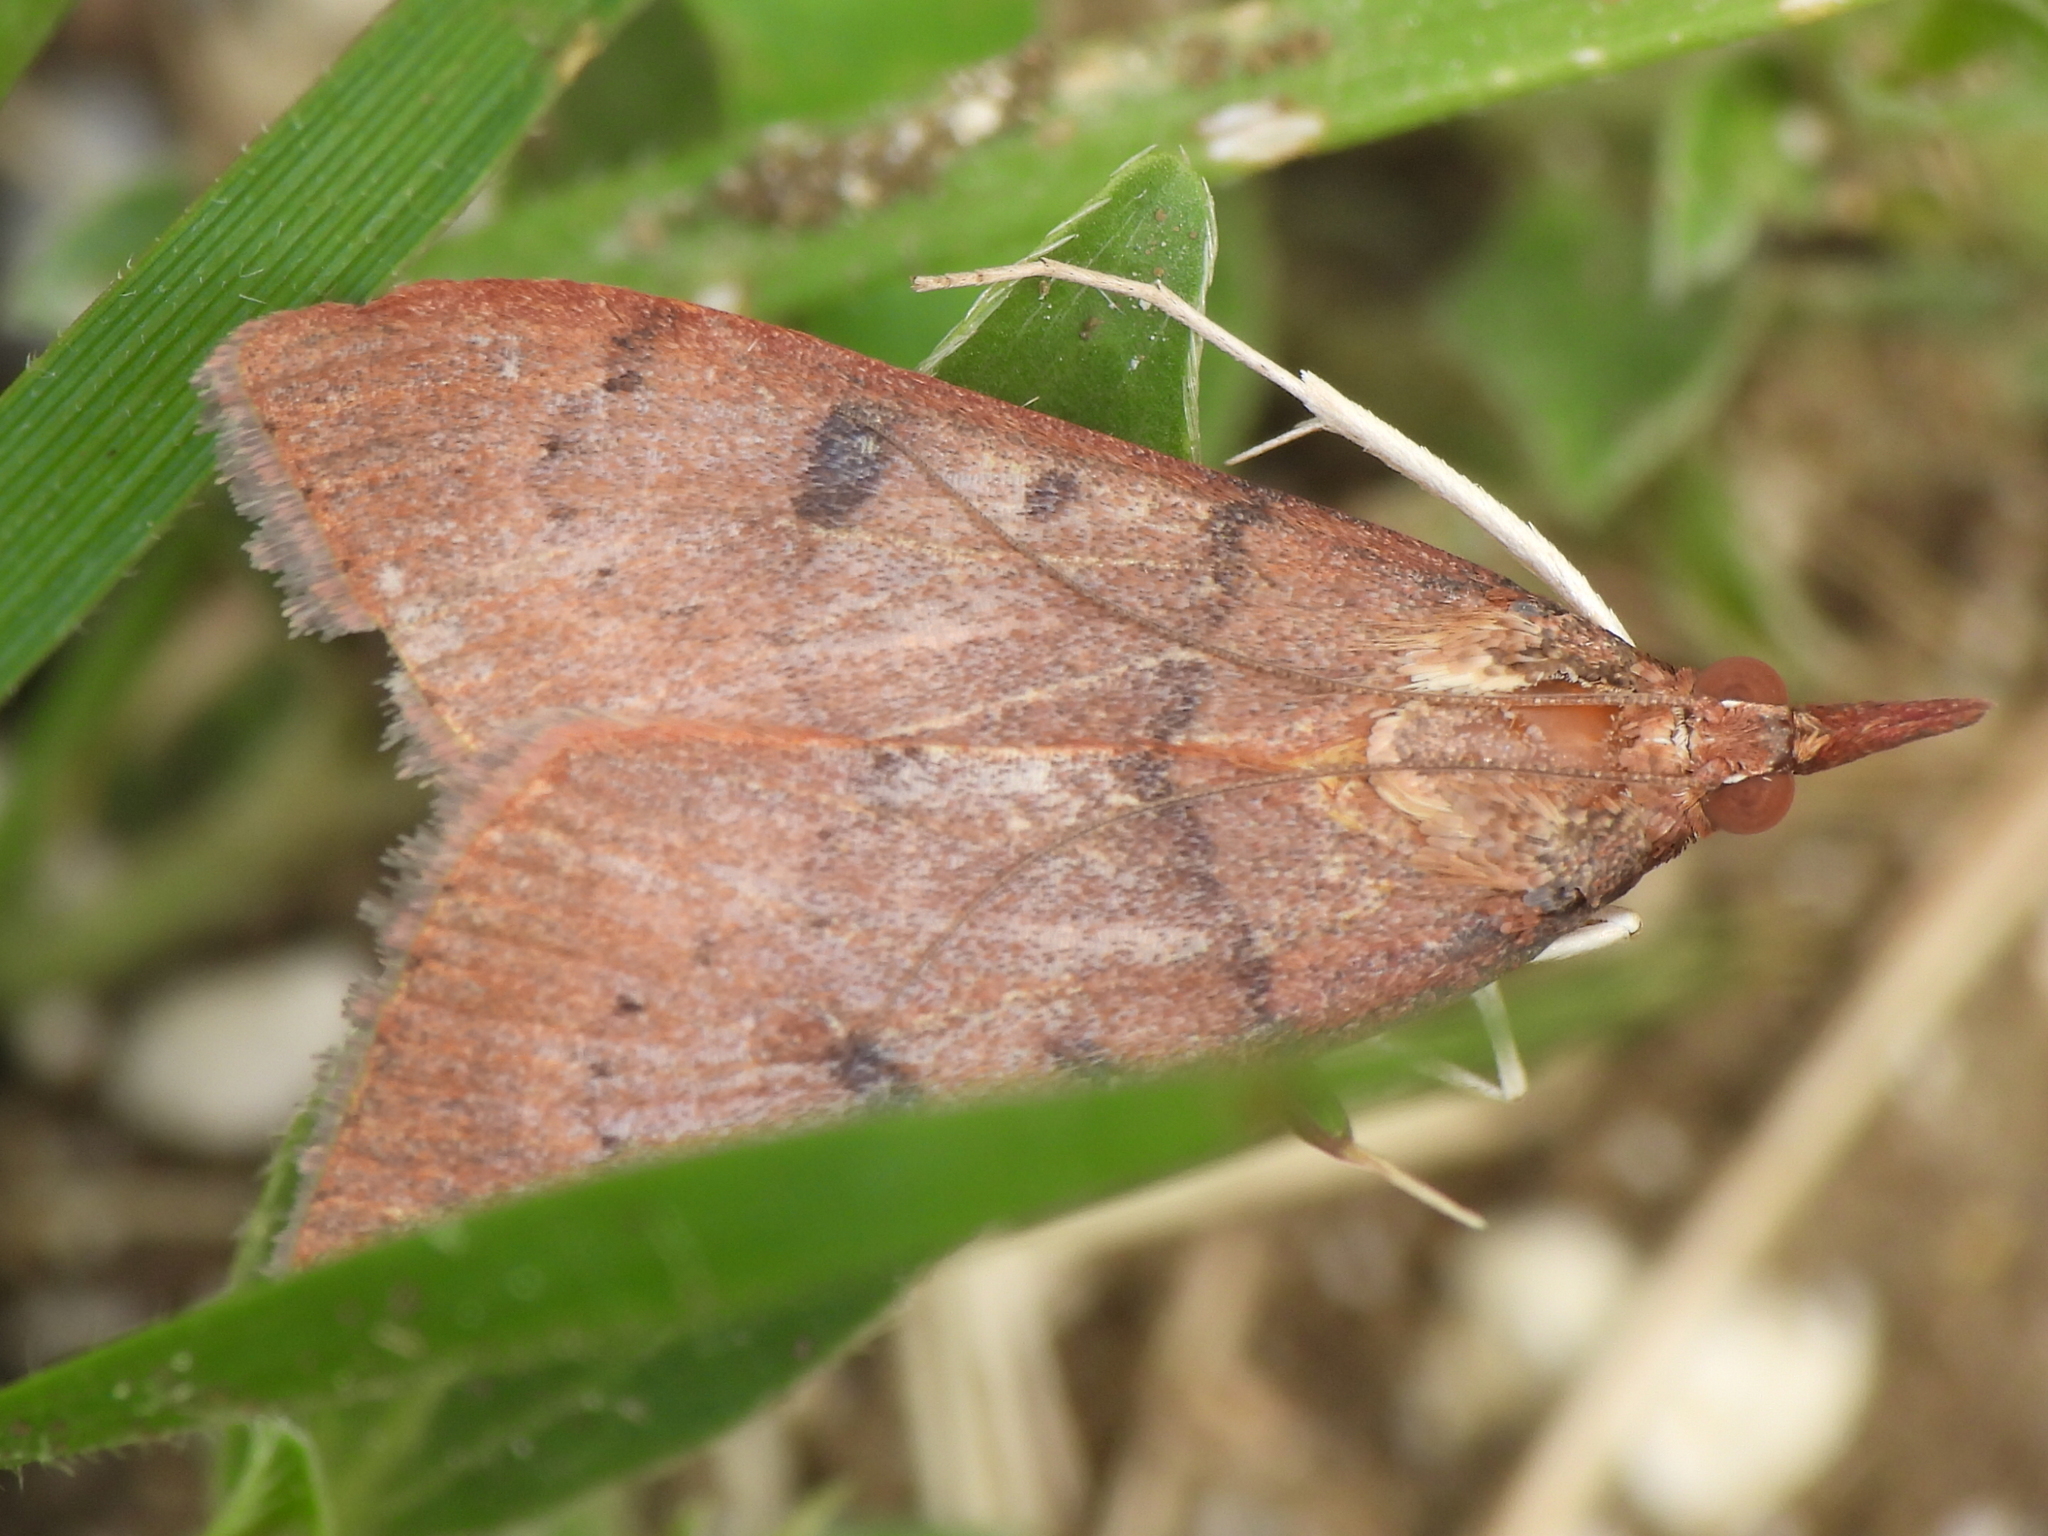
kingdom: Animalia
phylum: Arthropoda
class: Insecta
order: Lepidoptera
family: Crambidae
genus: Uresiphita
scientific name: Uresiphita reversalis
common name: Genista broom moth
